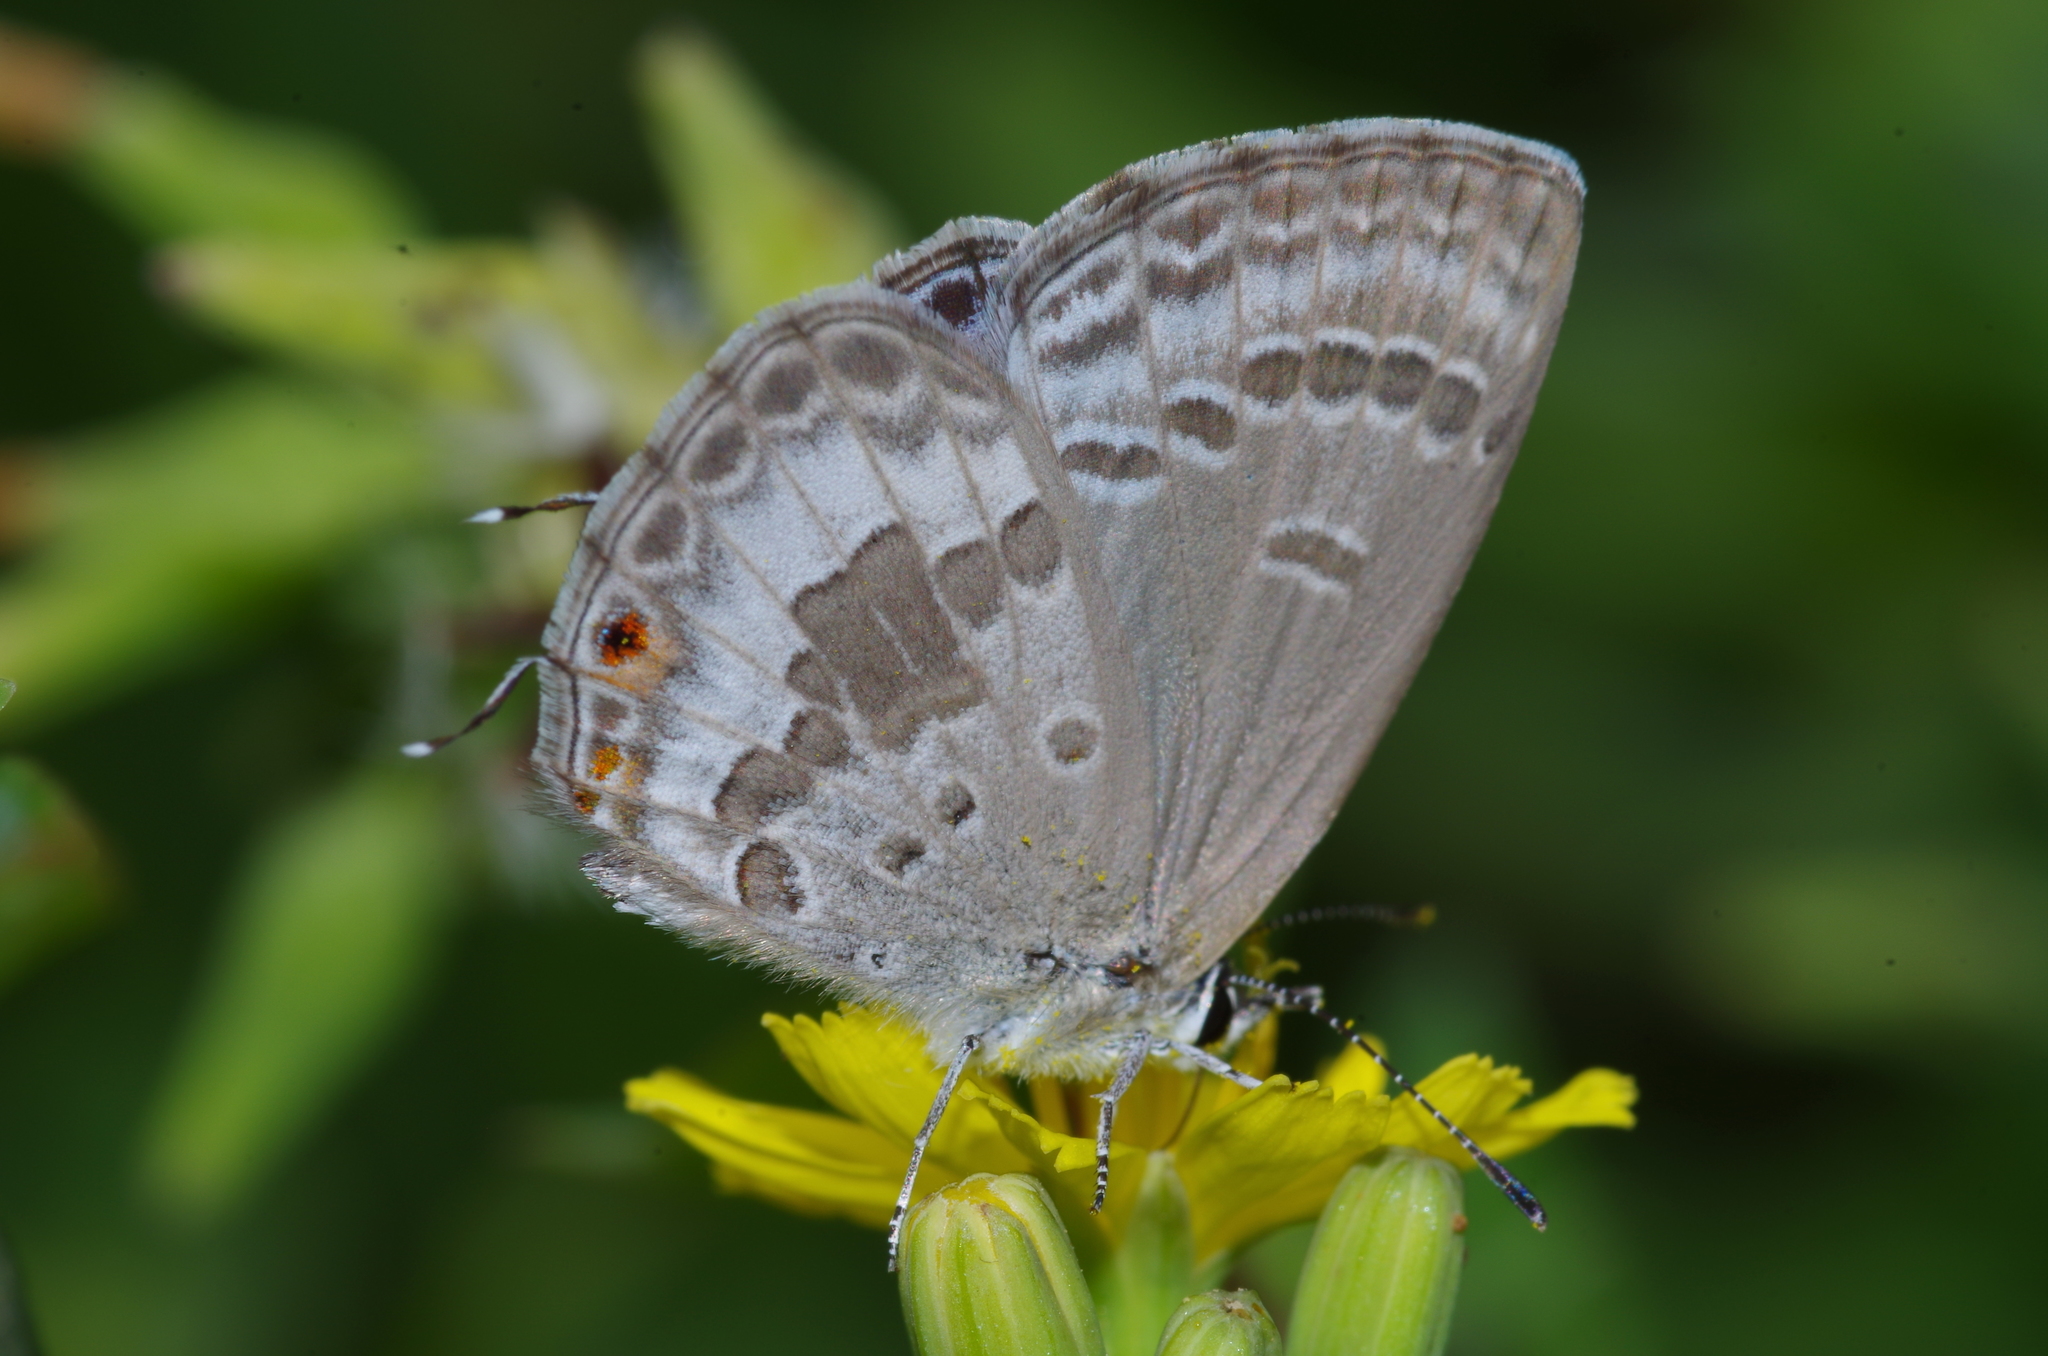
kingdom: Animalia
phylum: Arthropoda
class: Insecta
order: Lepidoptera
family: Lycaenidae
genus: Luthrodes
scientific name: Luthrodes pandava
